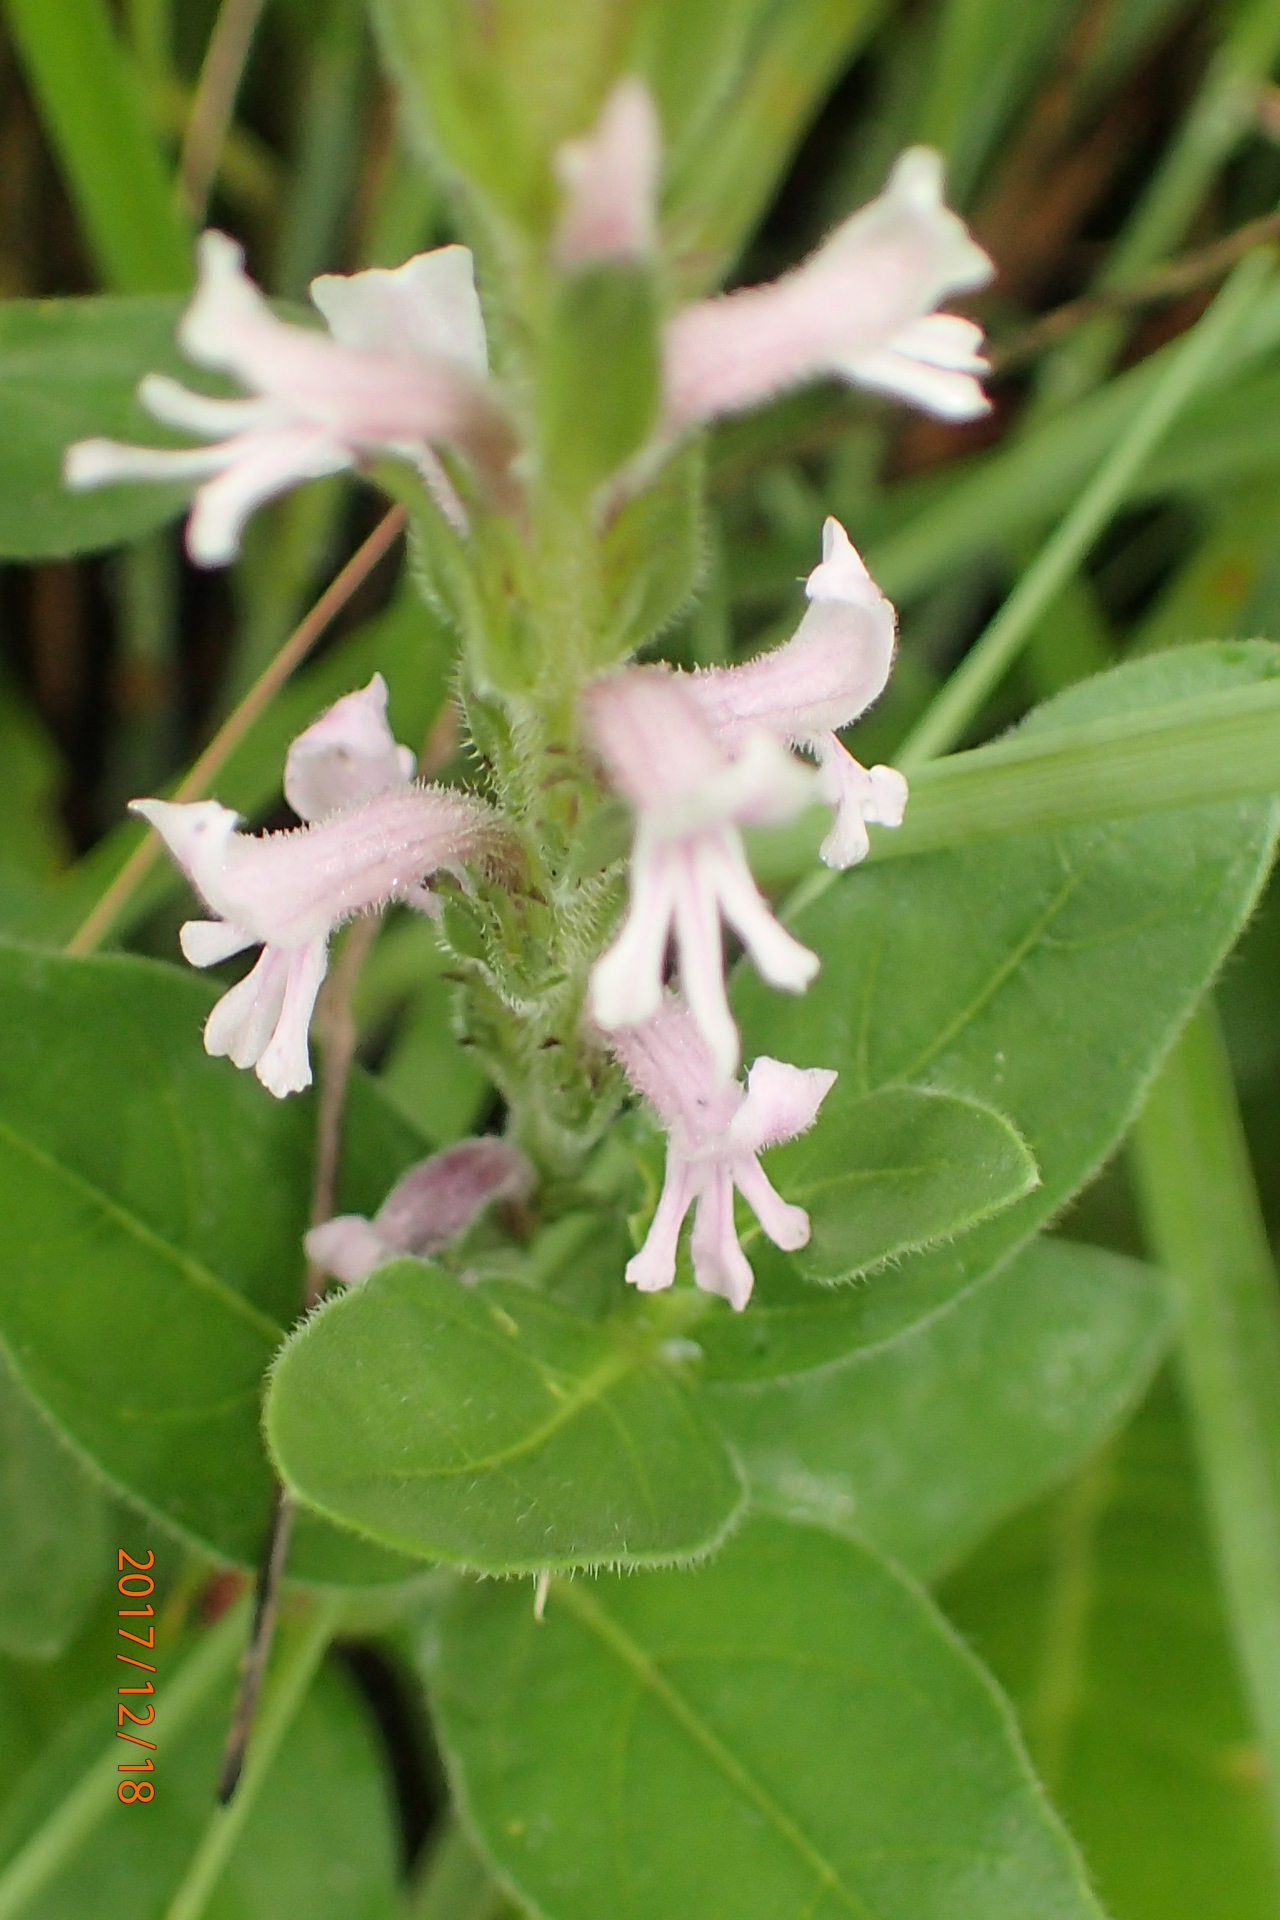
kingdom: Plantae
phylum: Tracheophyta
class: Magnoliopsida
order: Lamiales
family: Orobanchaceae
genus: Striga
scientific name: Striga bilabiata
